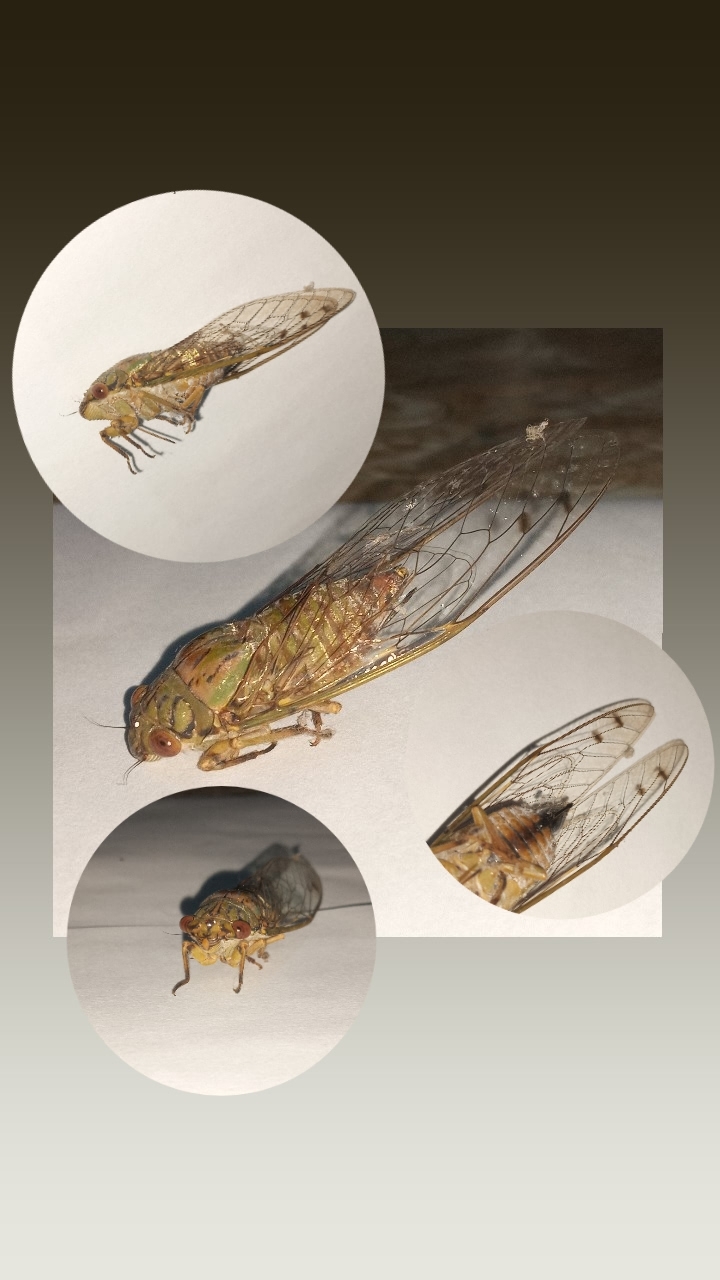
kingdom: Animalia
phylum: Arthropoda
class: Insecta
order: Hemiptera
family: Cicadidae
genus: Orientopsaltria
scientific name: Orientopsaltria fuliginosa
